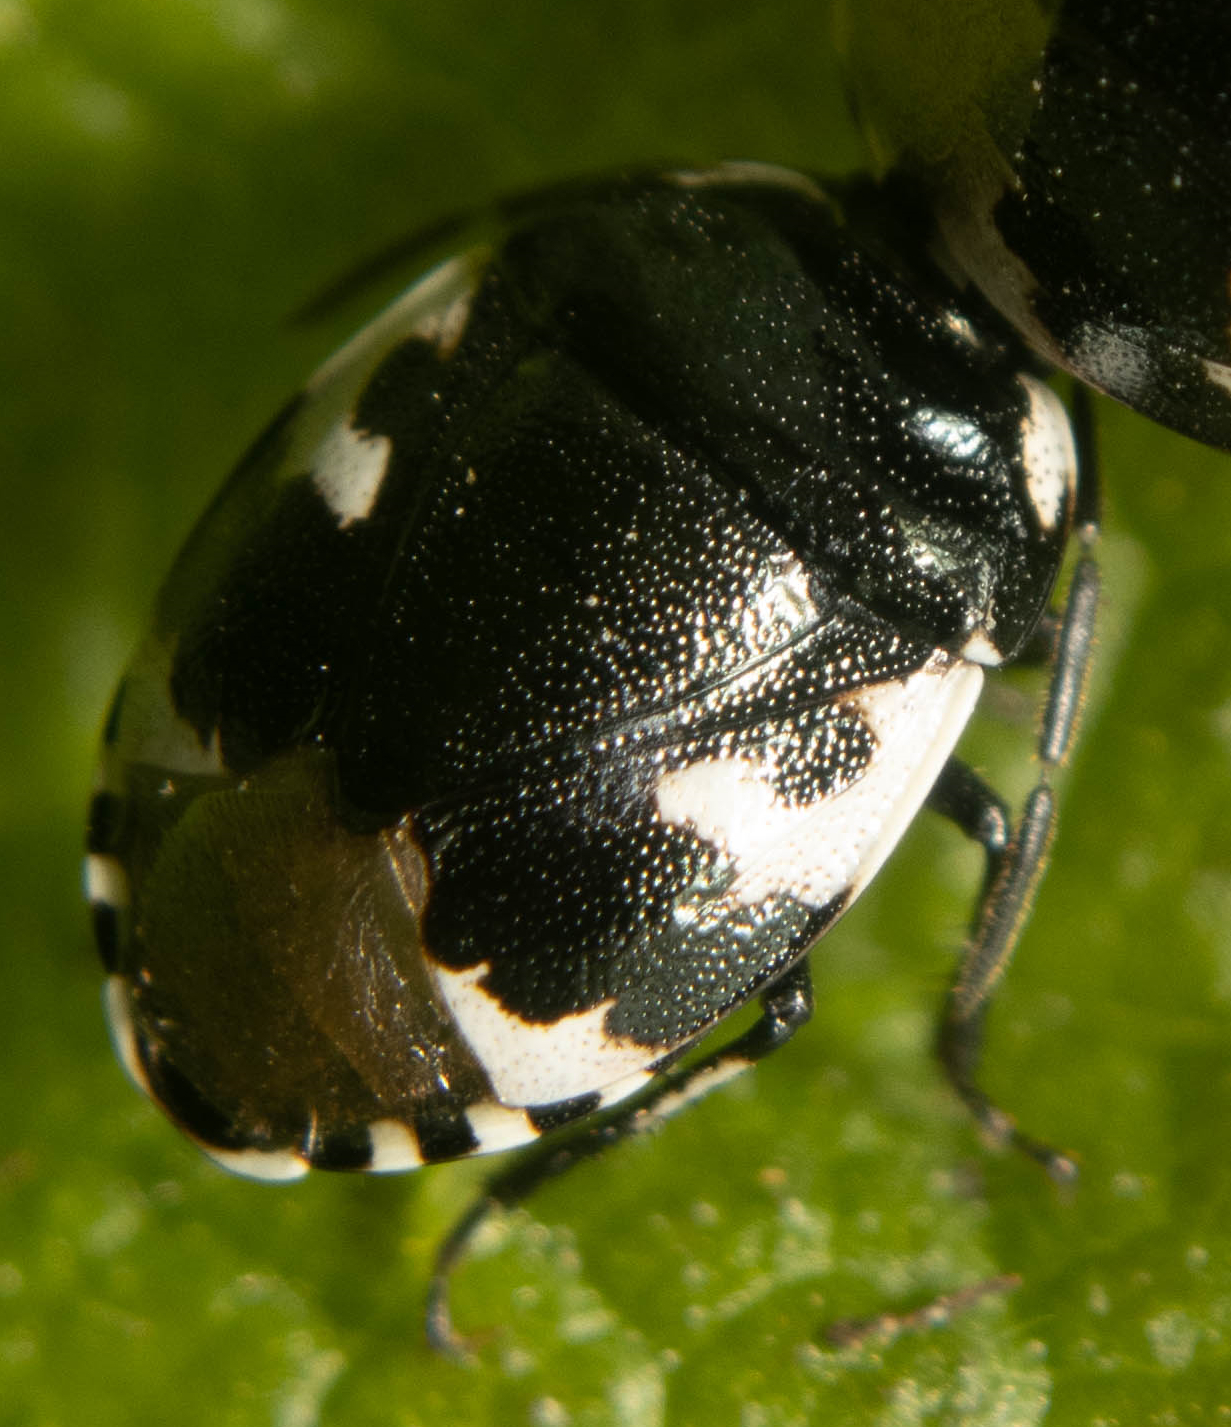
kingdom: Animalia
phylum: Arthropoda
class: Insecta
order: Hemiptera
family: Cydnidae
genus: Tritomegas
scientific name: Tritomegas bicolor
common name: Pied shieldbug
